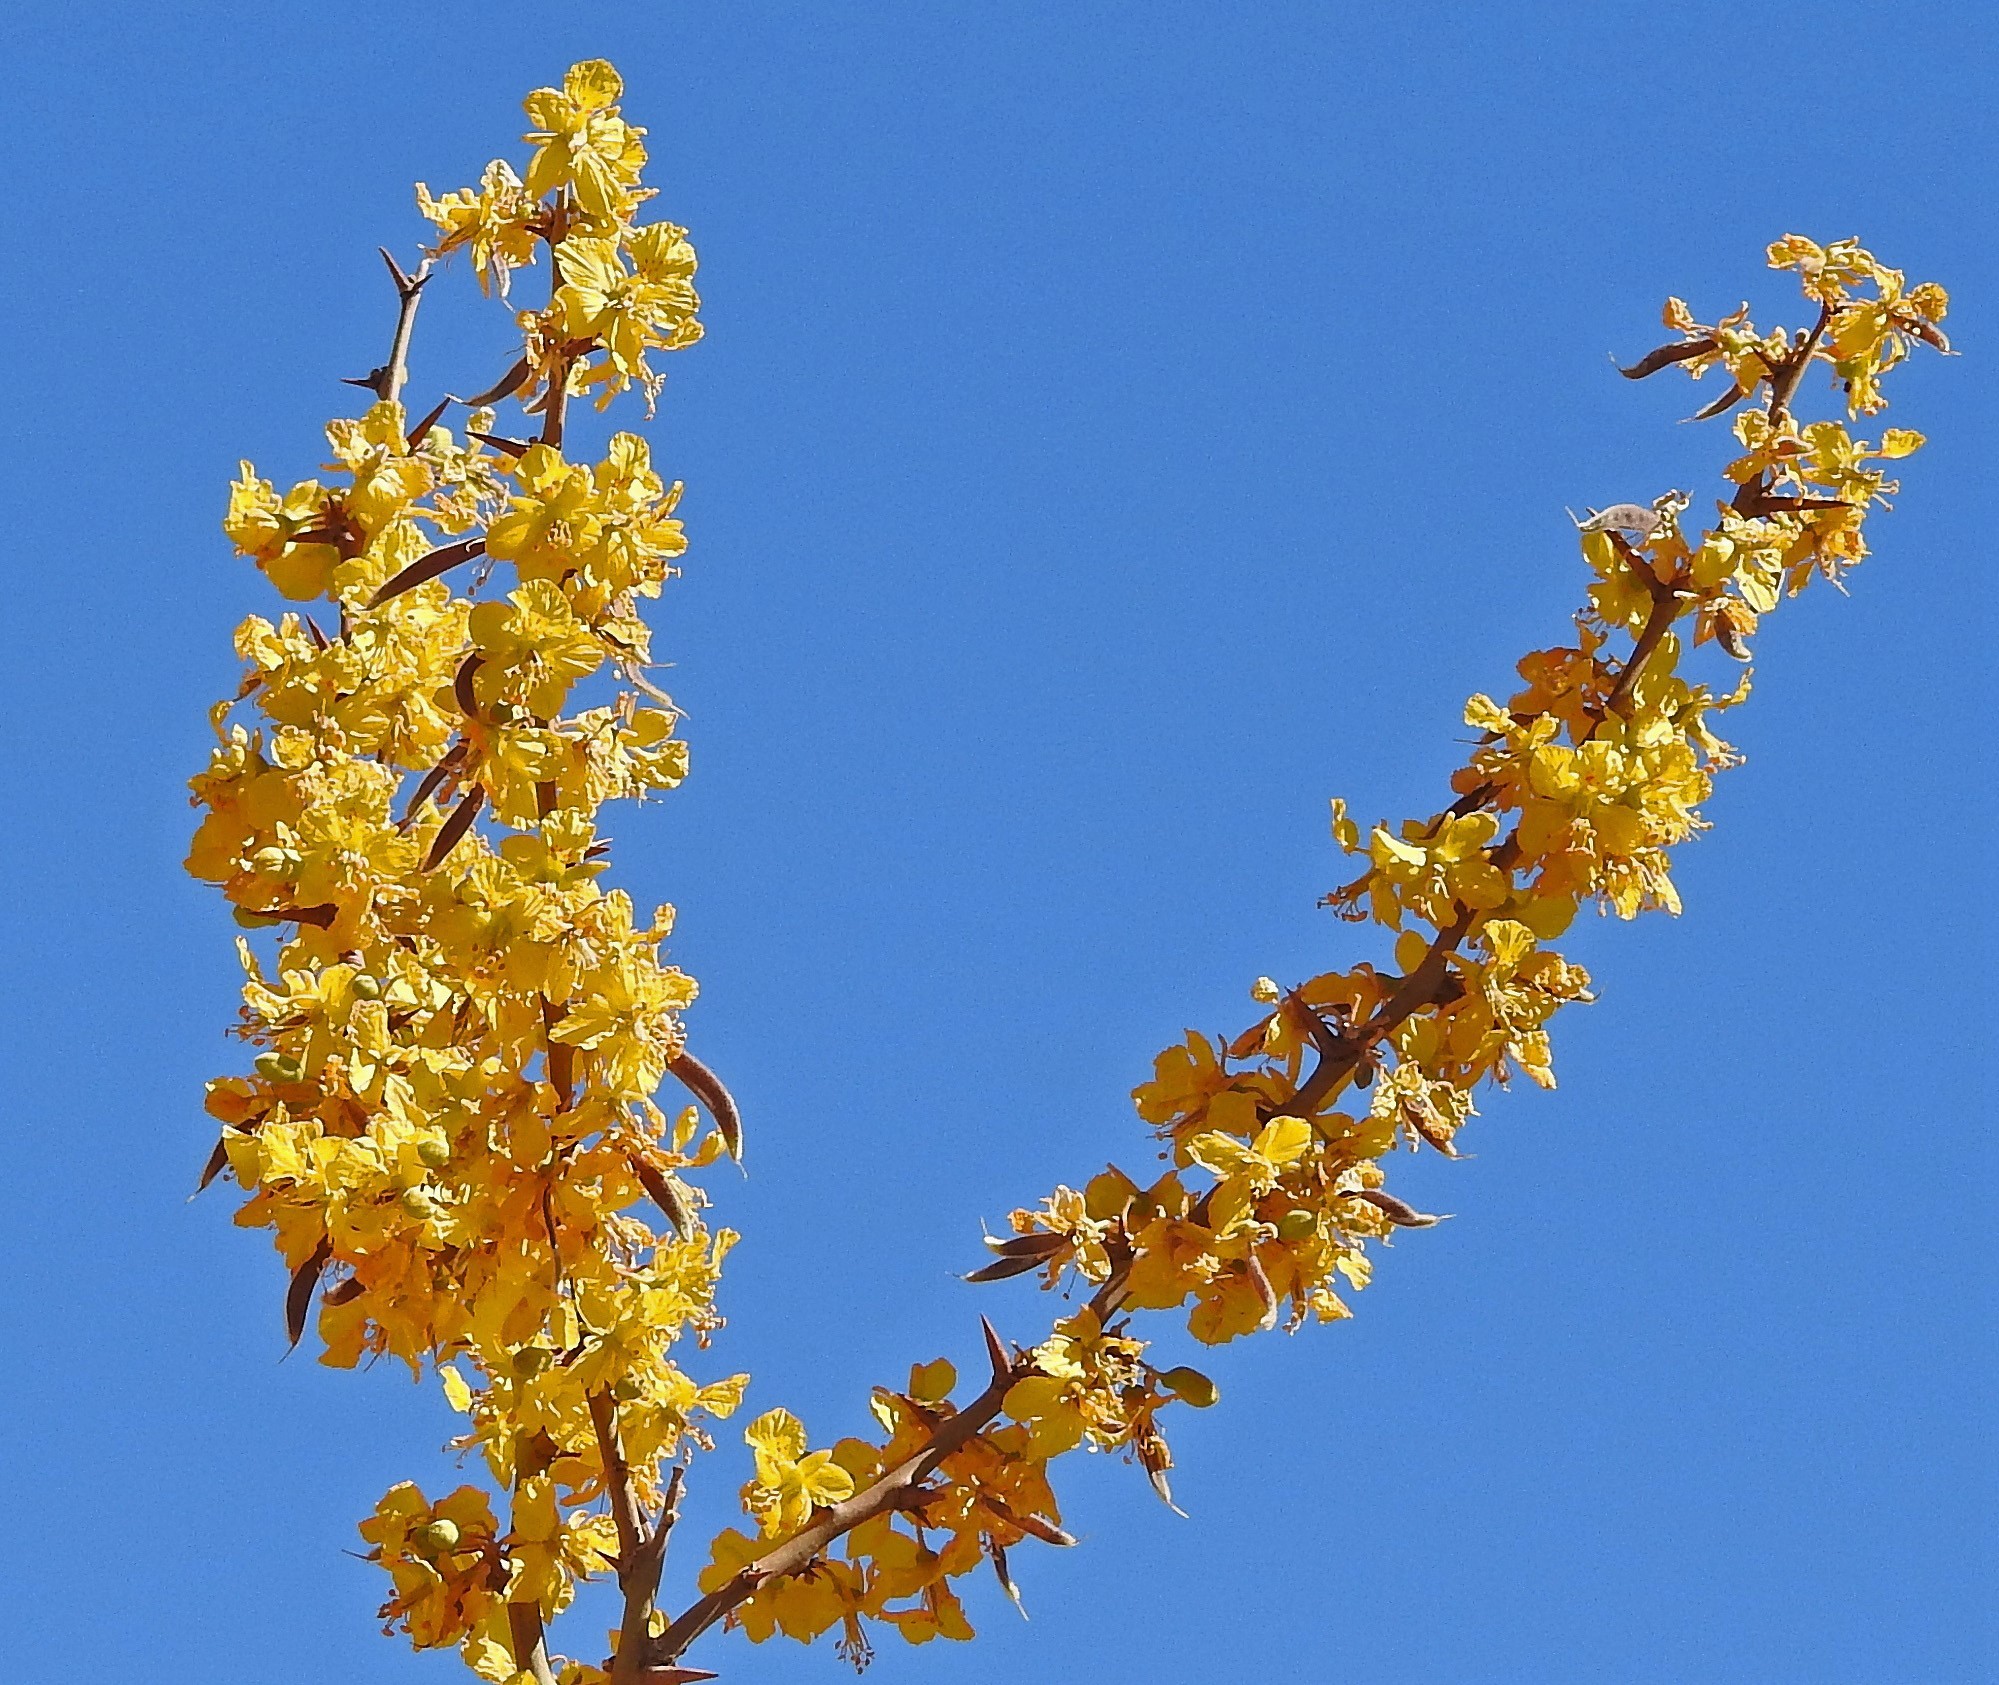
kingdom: Plantae
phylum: Tracheophyta
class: Magnoliopsida
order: Fabales
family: Fabaceae
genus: Parkinsonia
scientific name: Parkinsonia praecox
